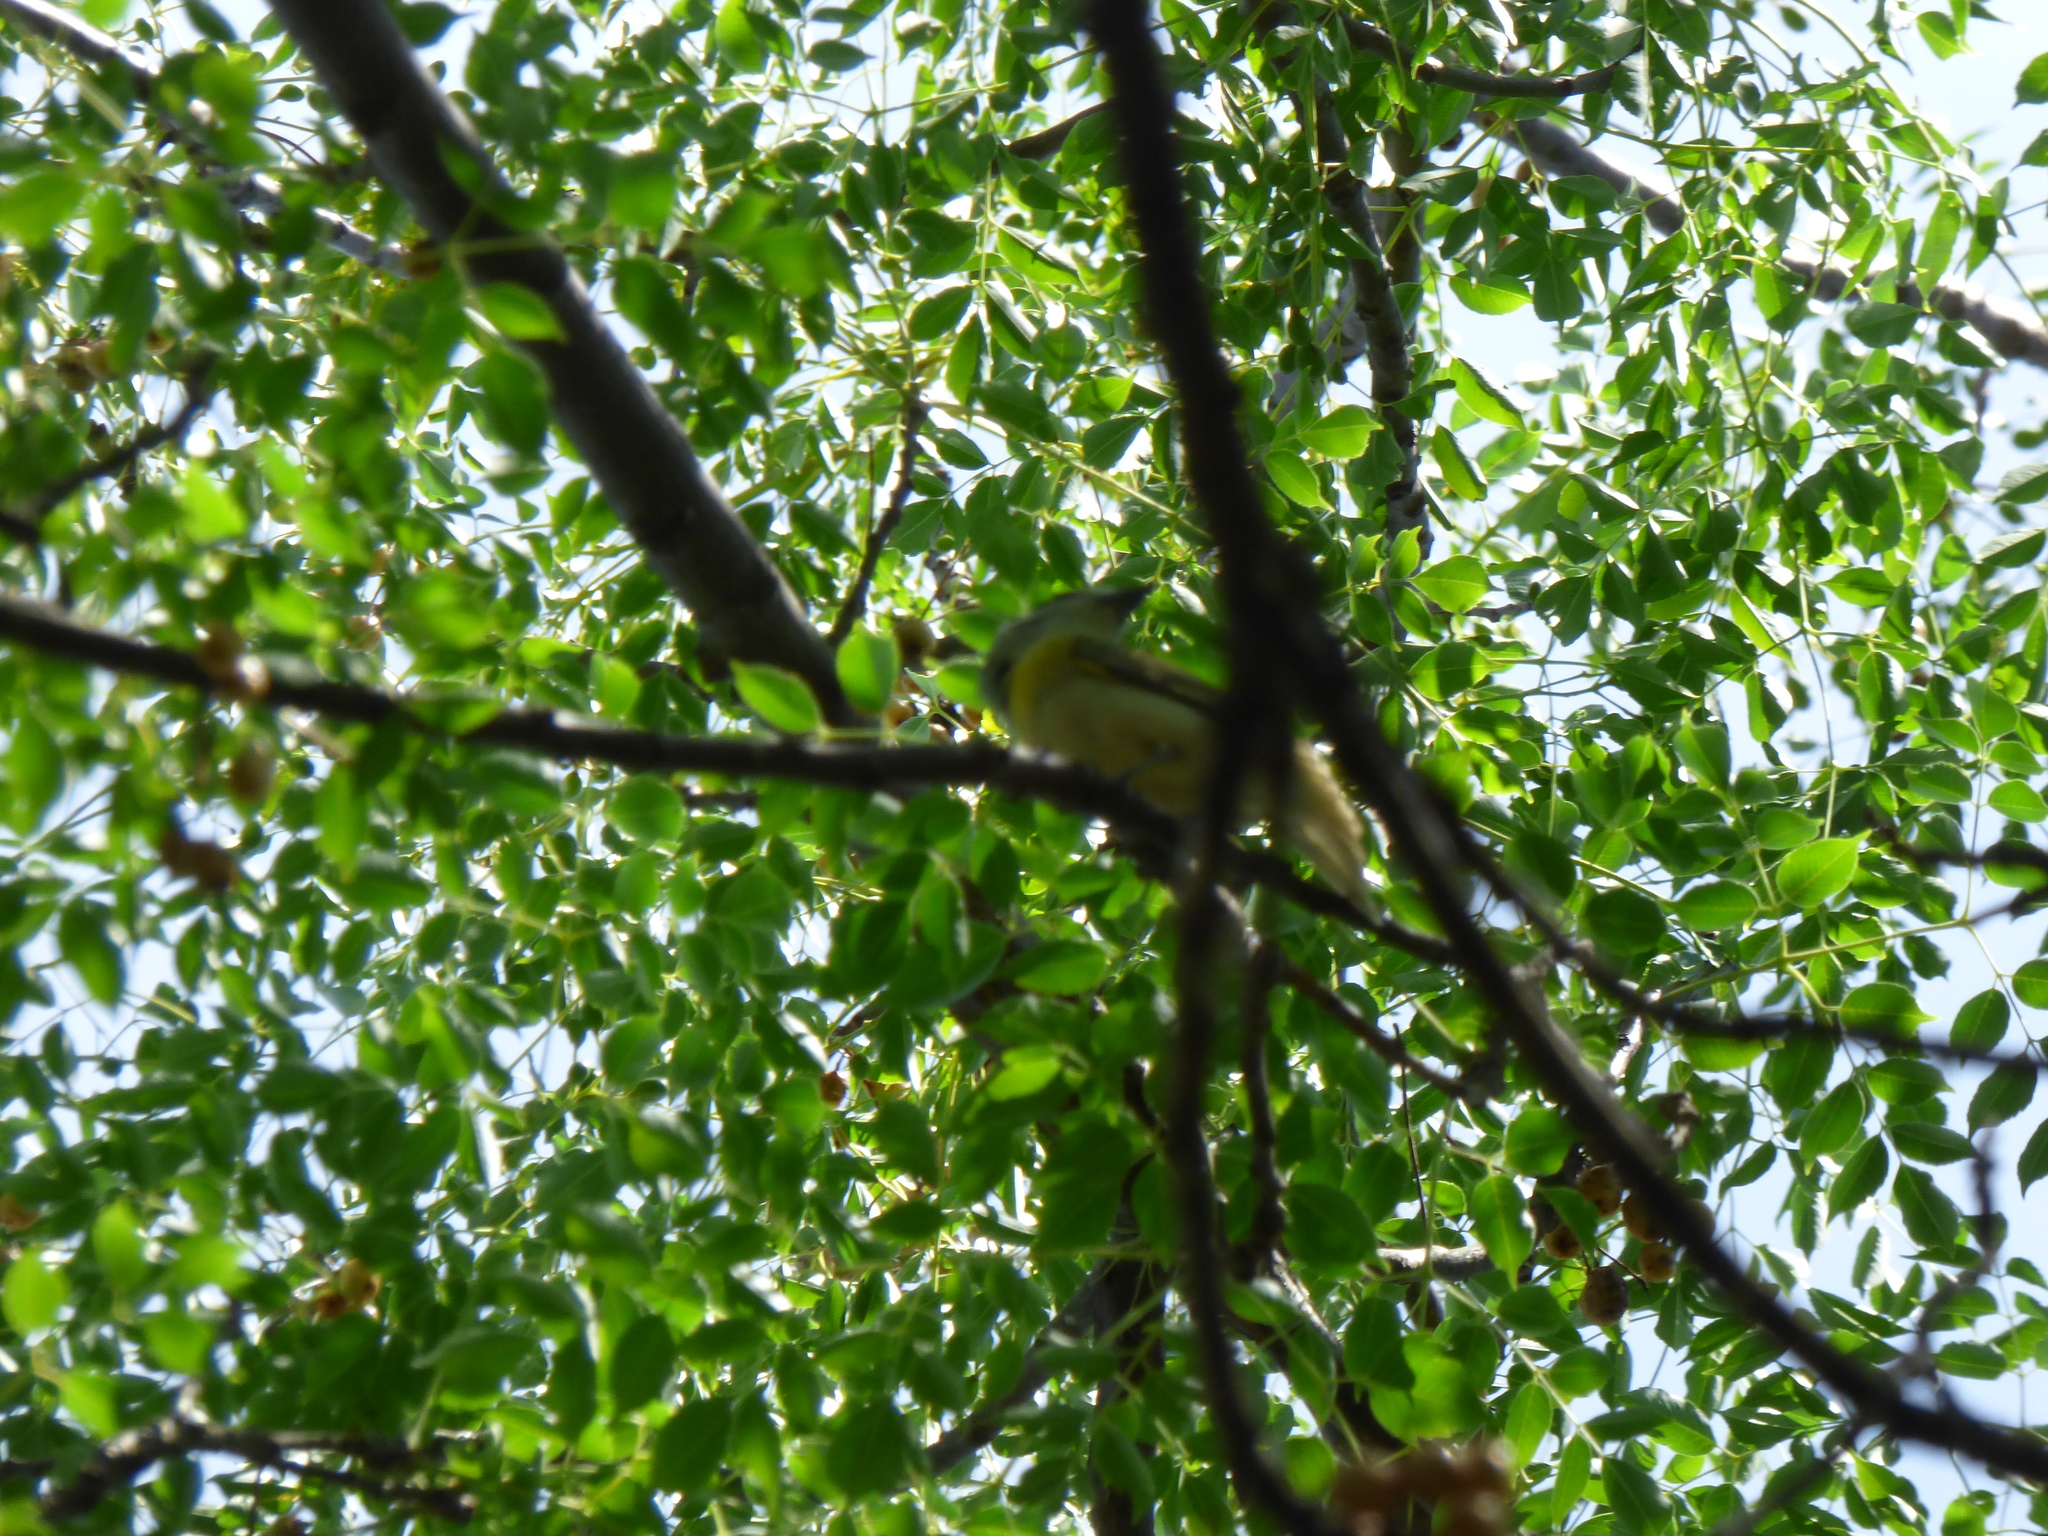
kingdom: Animalia
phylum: Chordata
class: Aves
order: Passeriformes
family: Cotingidae
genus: Pachyramphus
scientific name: Pachyramphus viridis
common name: Green-backed becard
